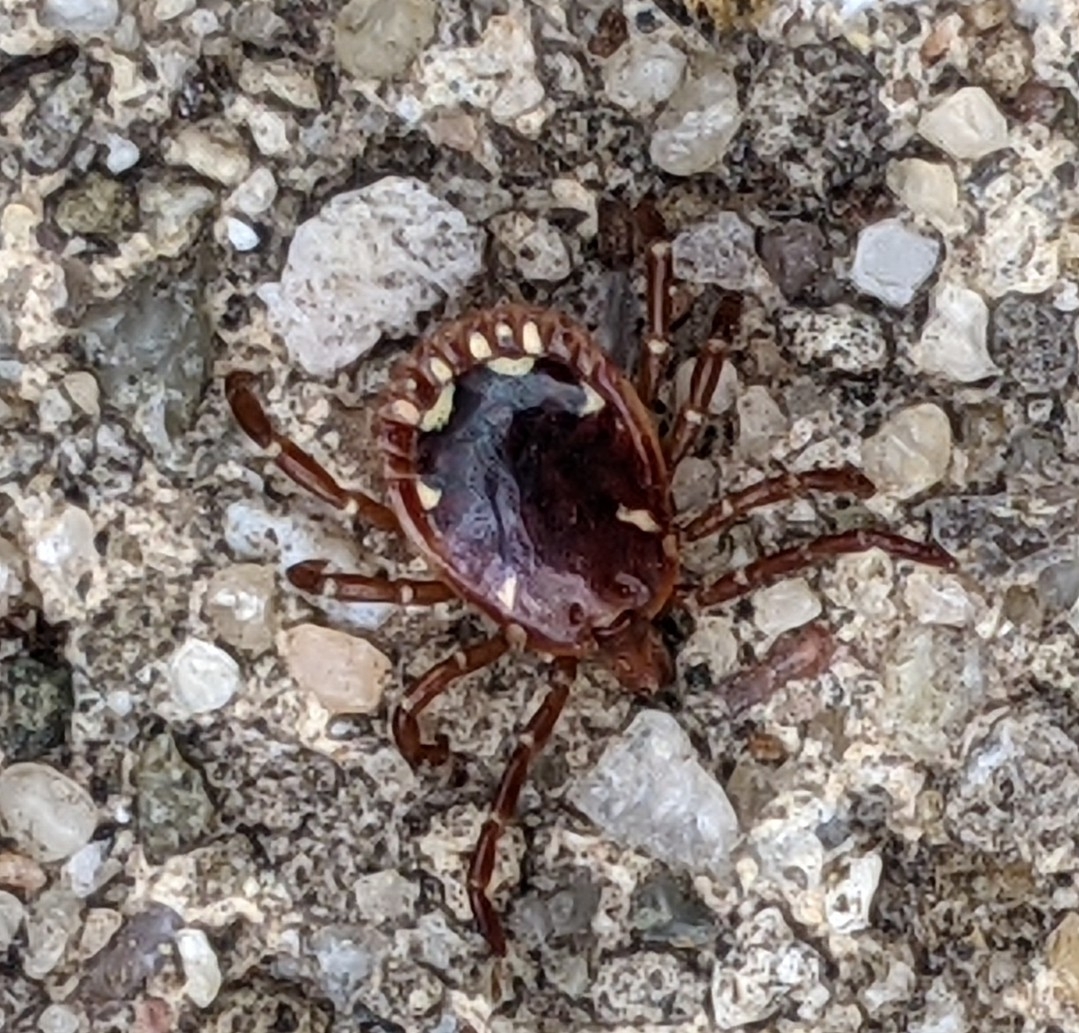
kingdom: Animalia
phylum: Arthropoda
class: Arachnida
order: Ixodida
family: Ixodidae
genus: Amblyomma
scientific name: Amblyomma americanum
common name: Lone star tick
